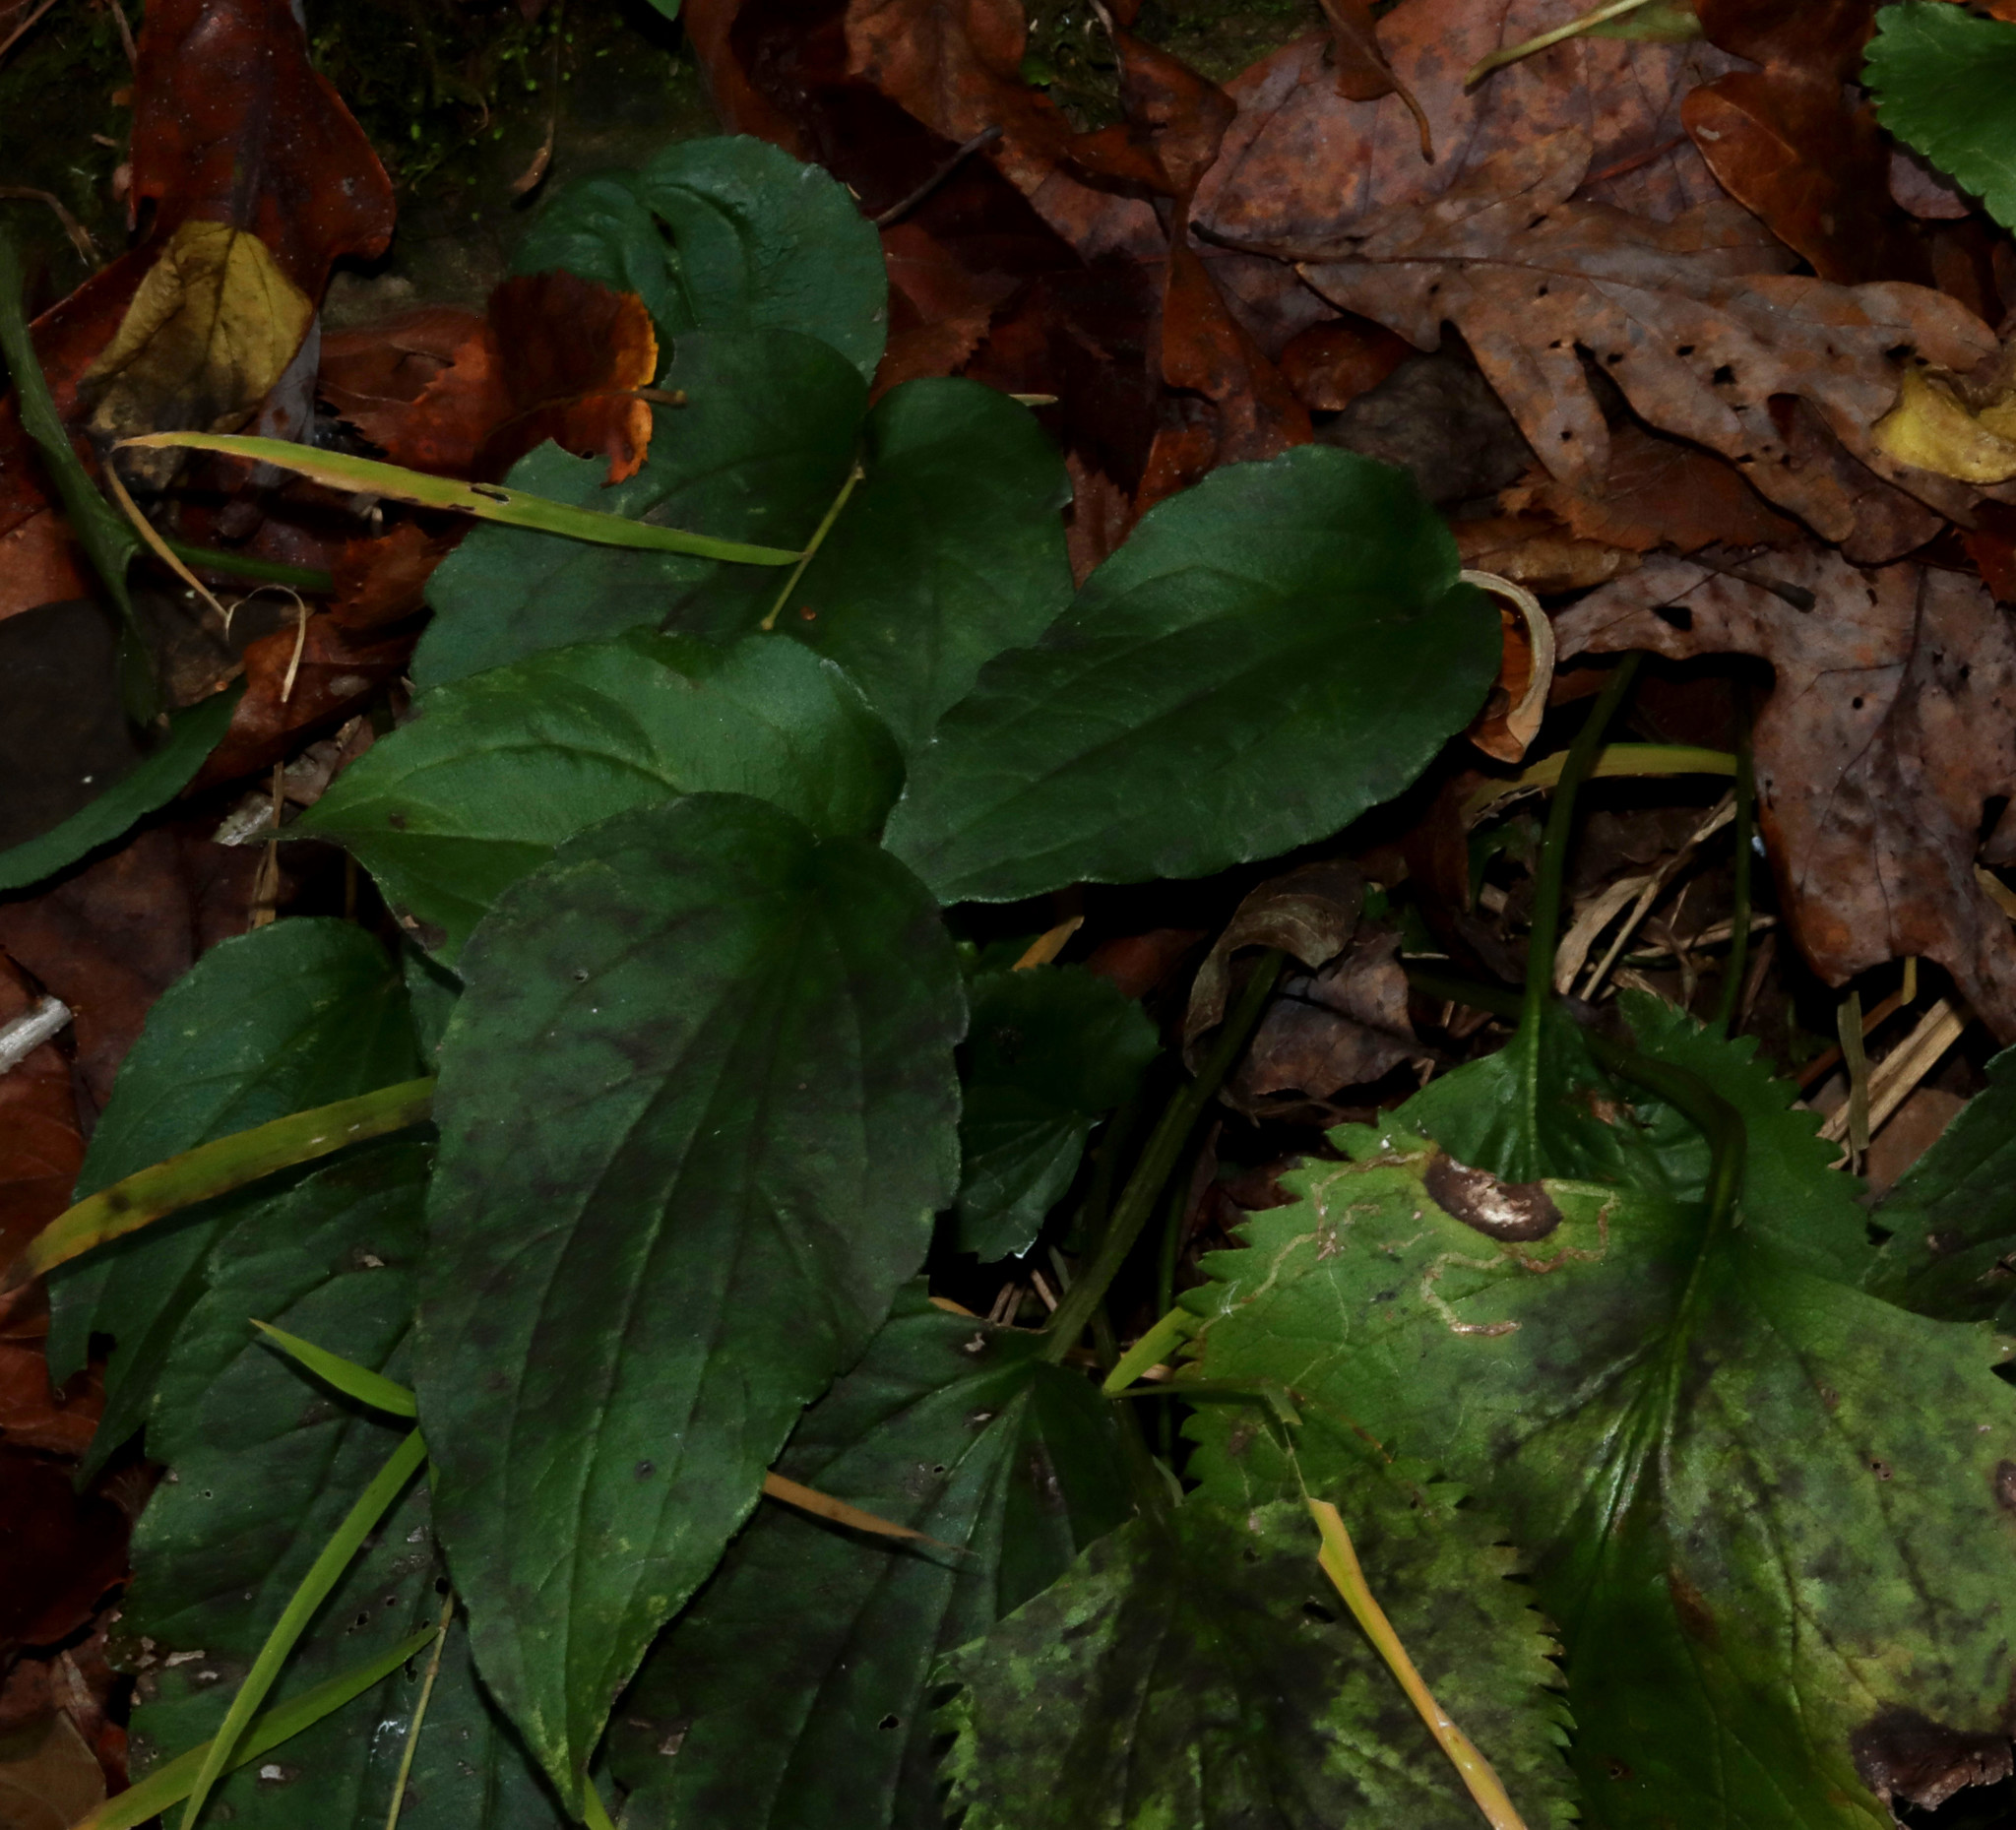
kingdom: Plantae
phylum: Tracheophyta
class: Magnoliopsida
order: Asterales
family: Asteraceae
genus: Rudbeckia
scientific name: Rudbeckia fulgida
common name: Perennial coneflower
